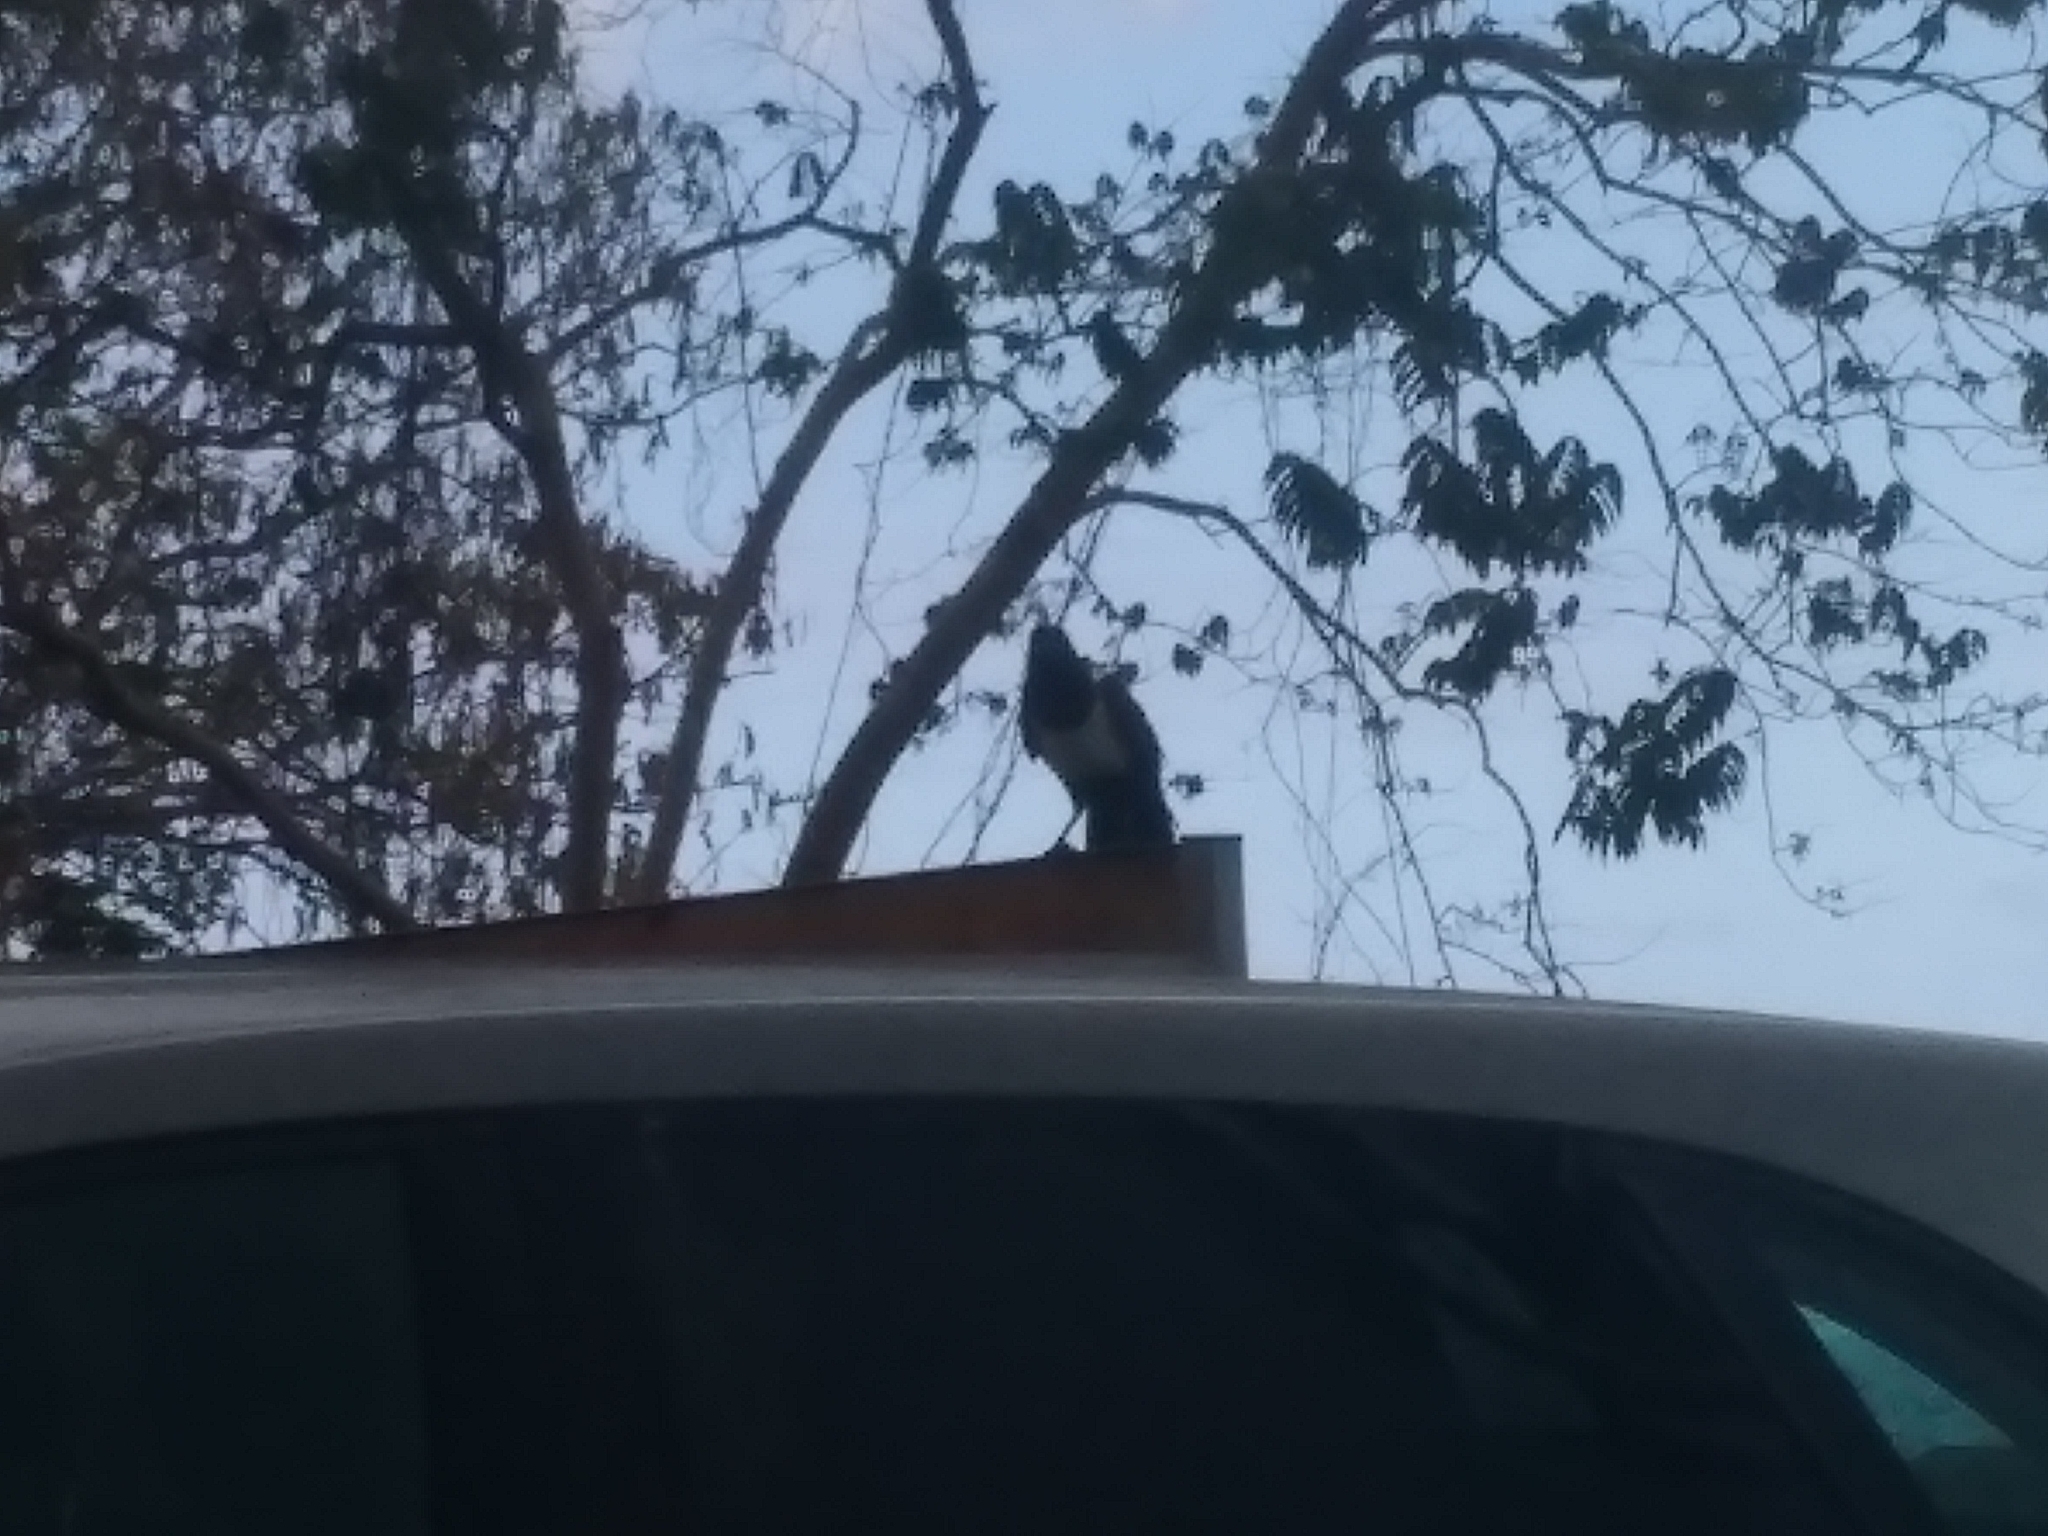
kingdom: Animalia
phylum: Chordata
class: Aves
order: Passeriformes
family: Corvidae
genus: Corvus
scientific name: Corvus albus
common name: Pied crow
